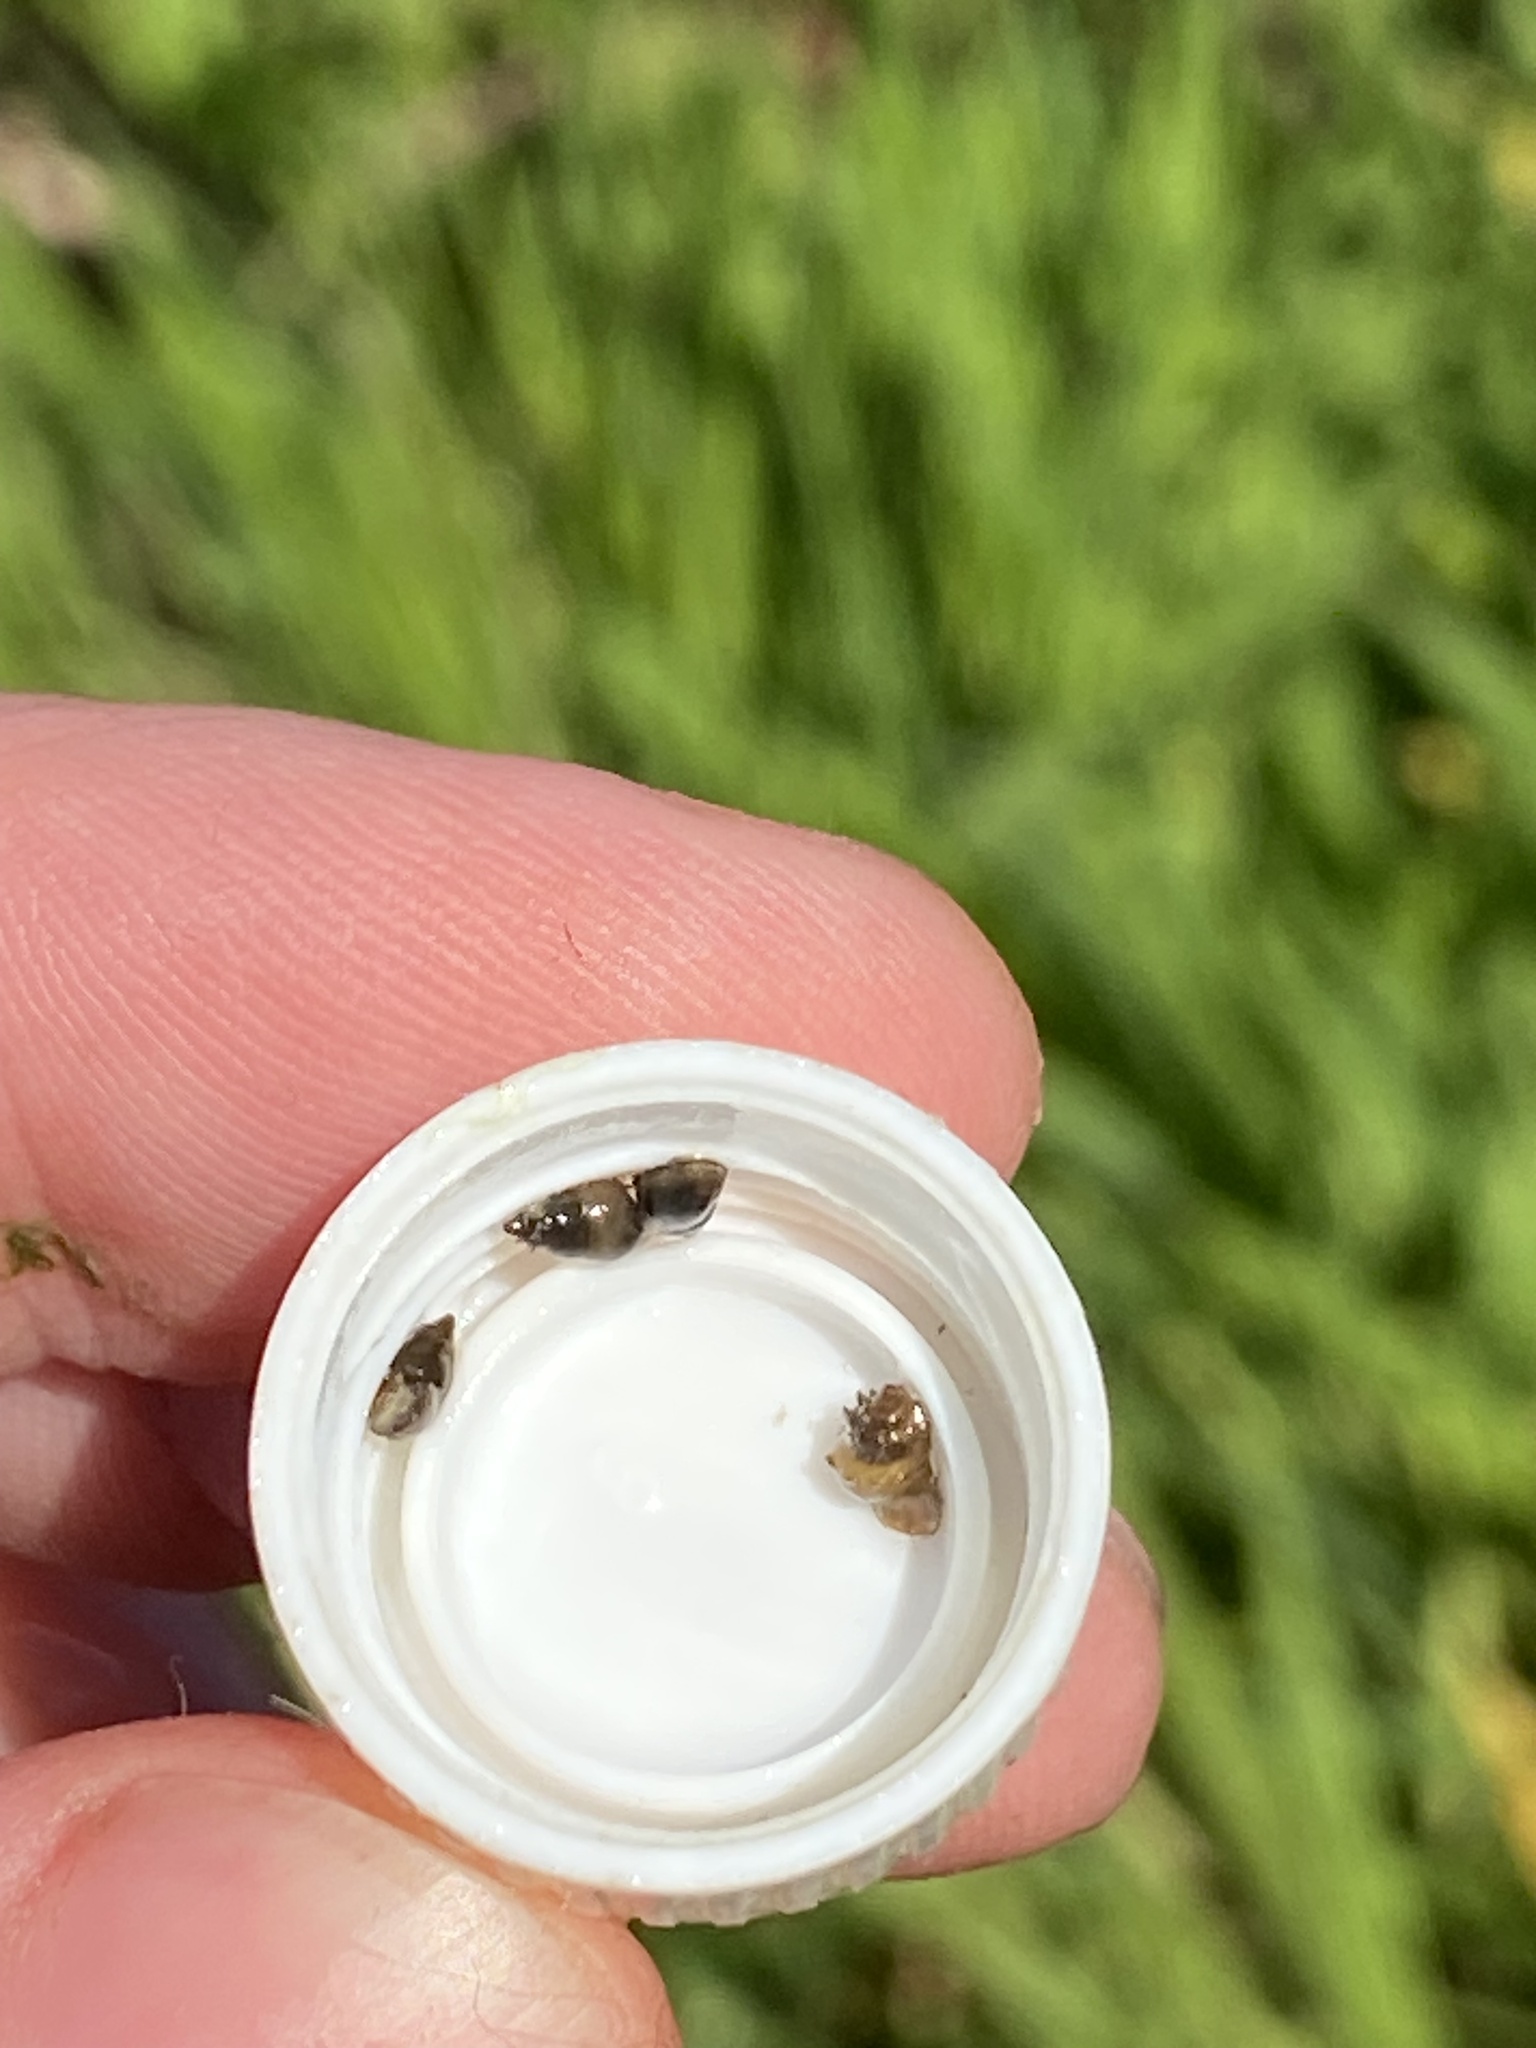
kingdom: Animalia
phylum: Mollusca
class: Gastropoda
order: Littorinimorpha
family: Tateidae
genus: Potamopyrgus
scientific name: Potamopyrgus antipodarum
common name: Jenkins' spire snail
